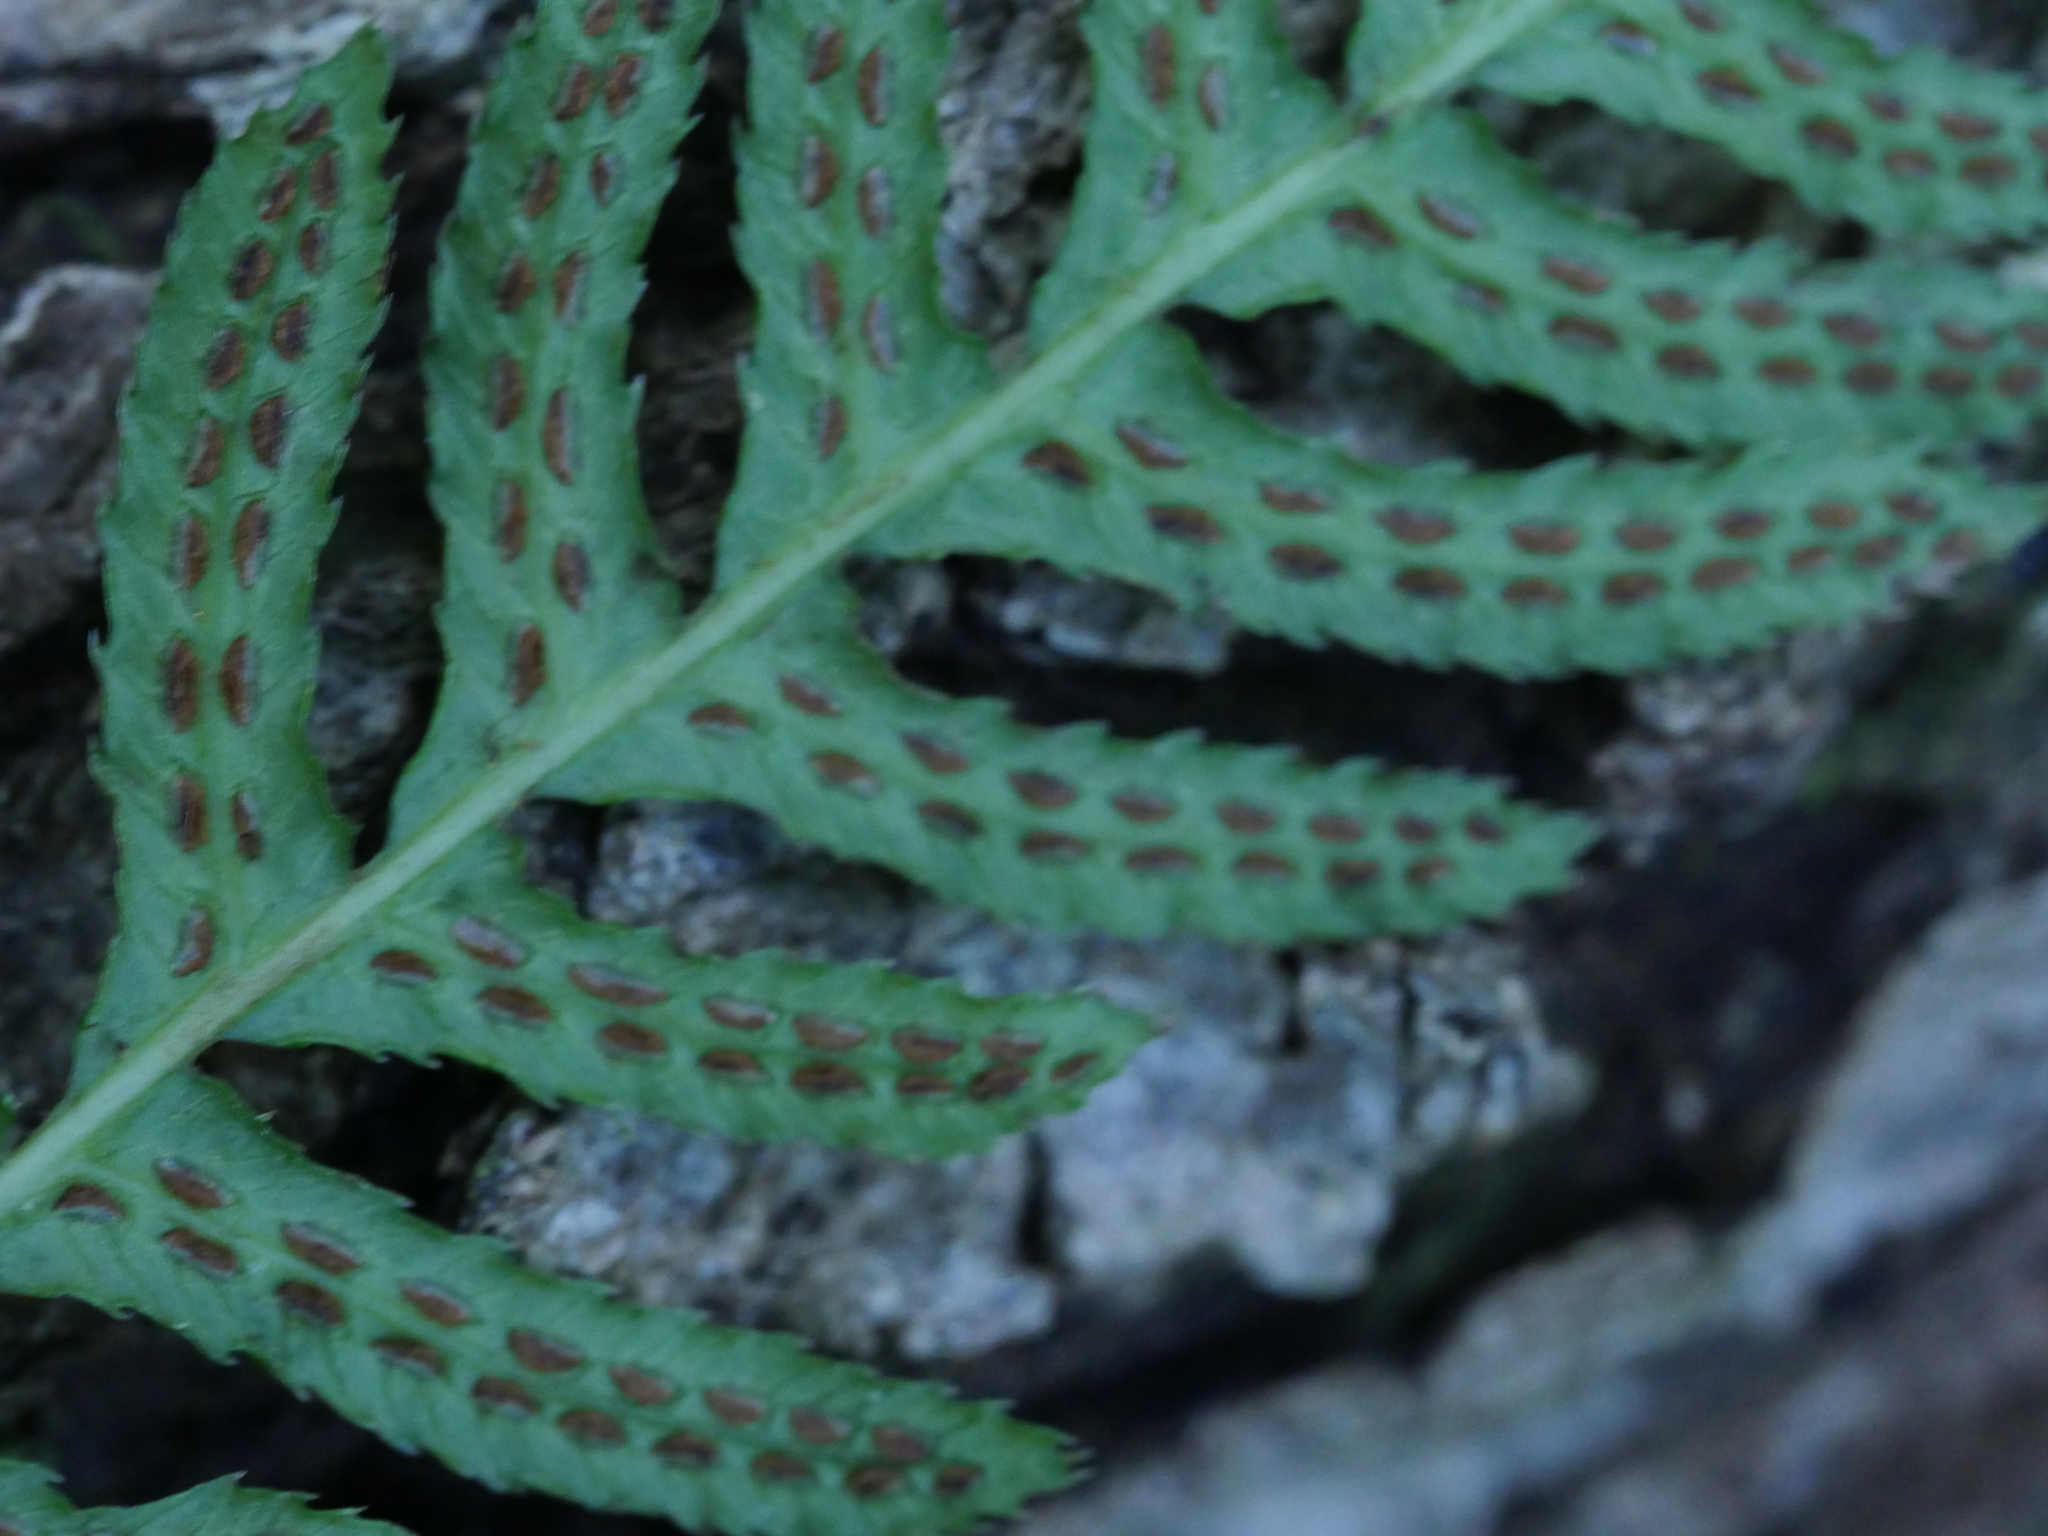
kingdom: Plantae
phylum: Tracheophyta
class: Polypodiopsida
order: Polypodiales
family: Blechnaceae
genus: Doodia
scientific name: Doodia australis
